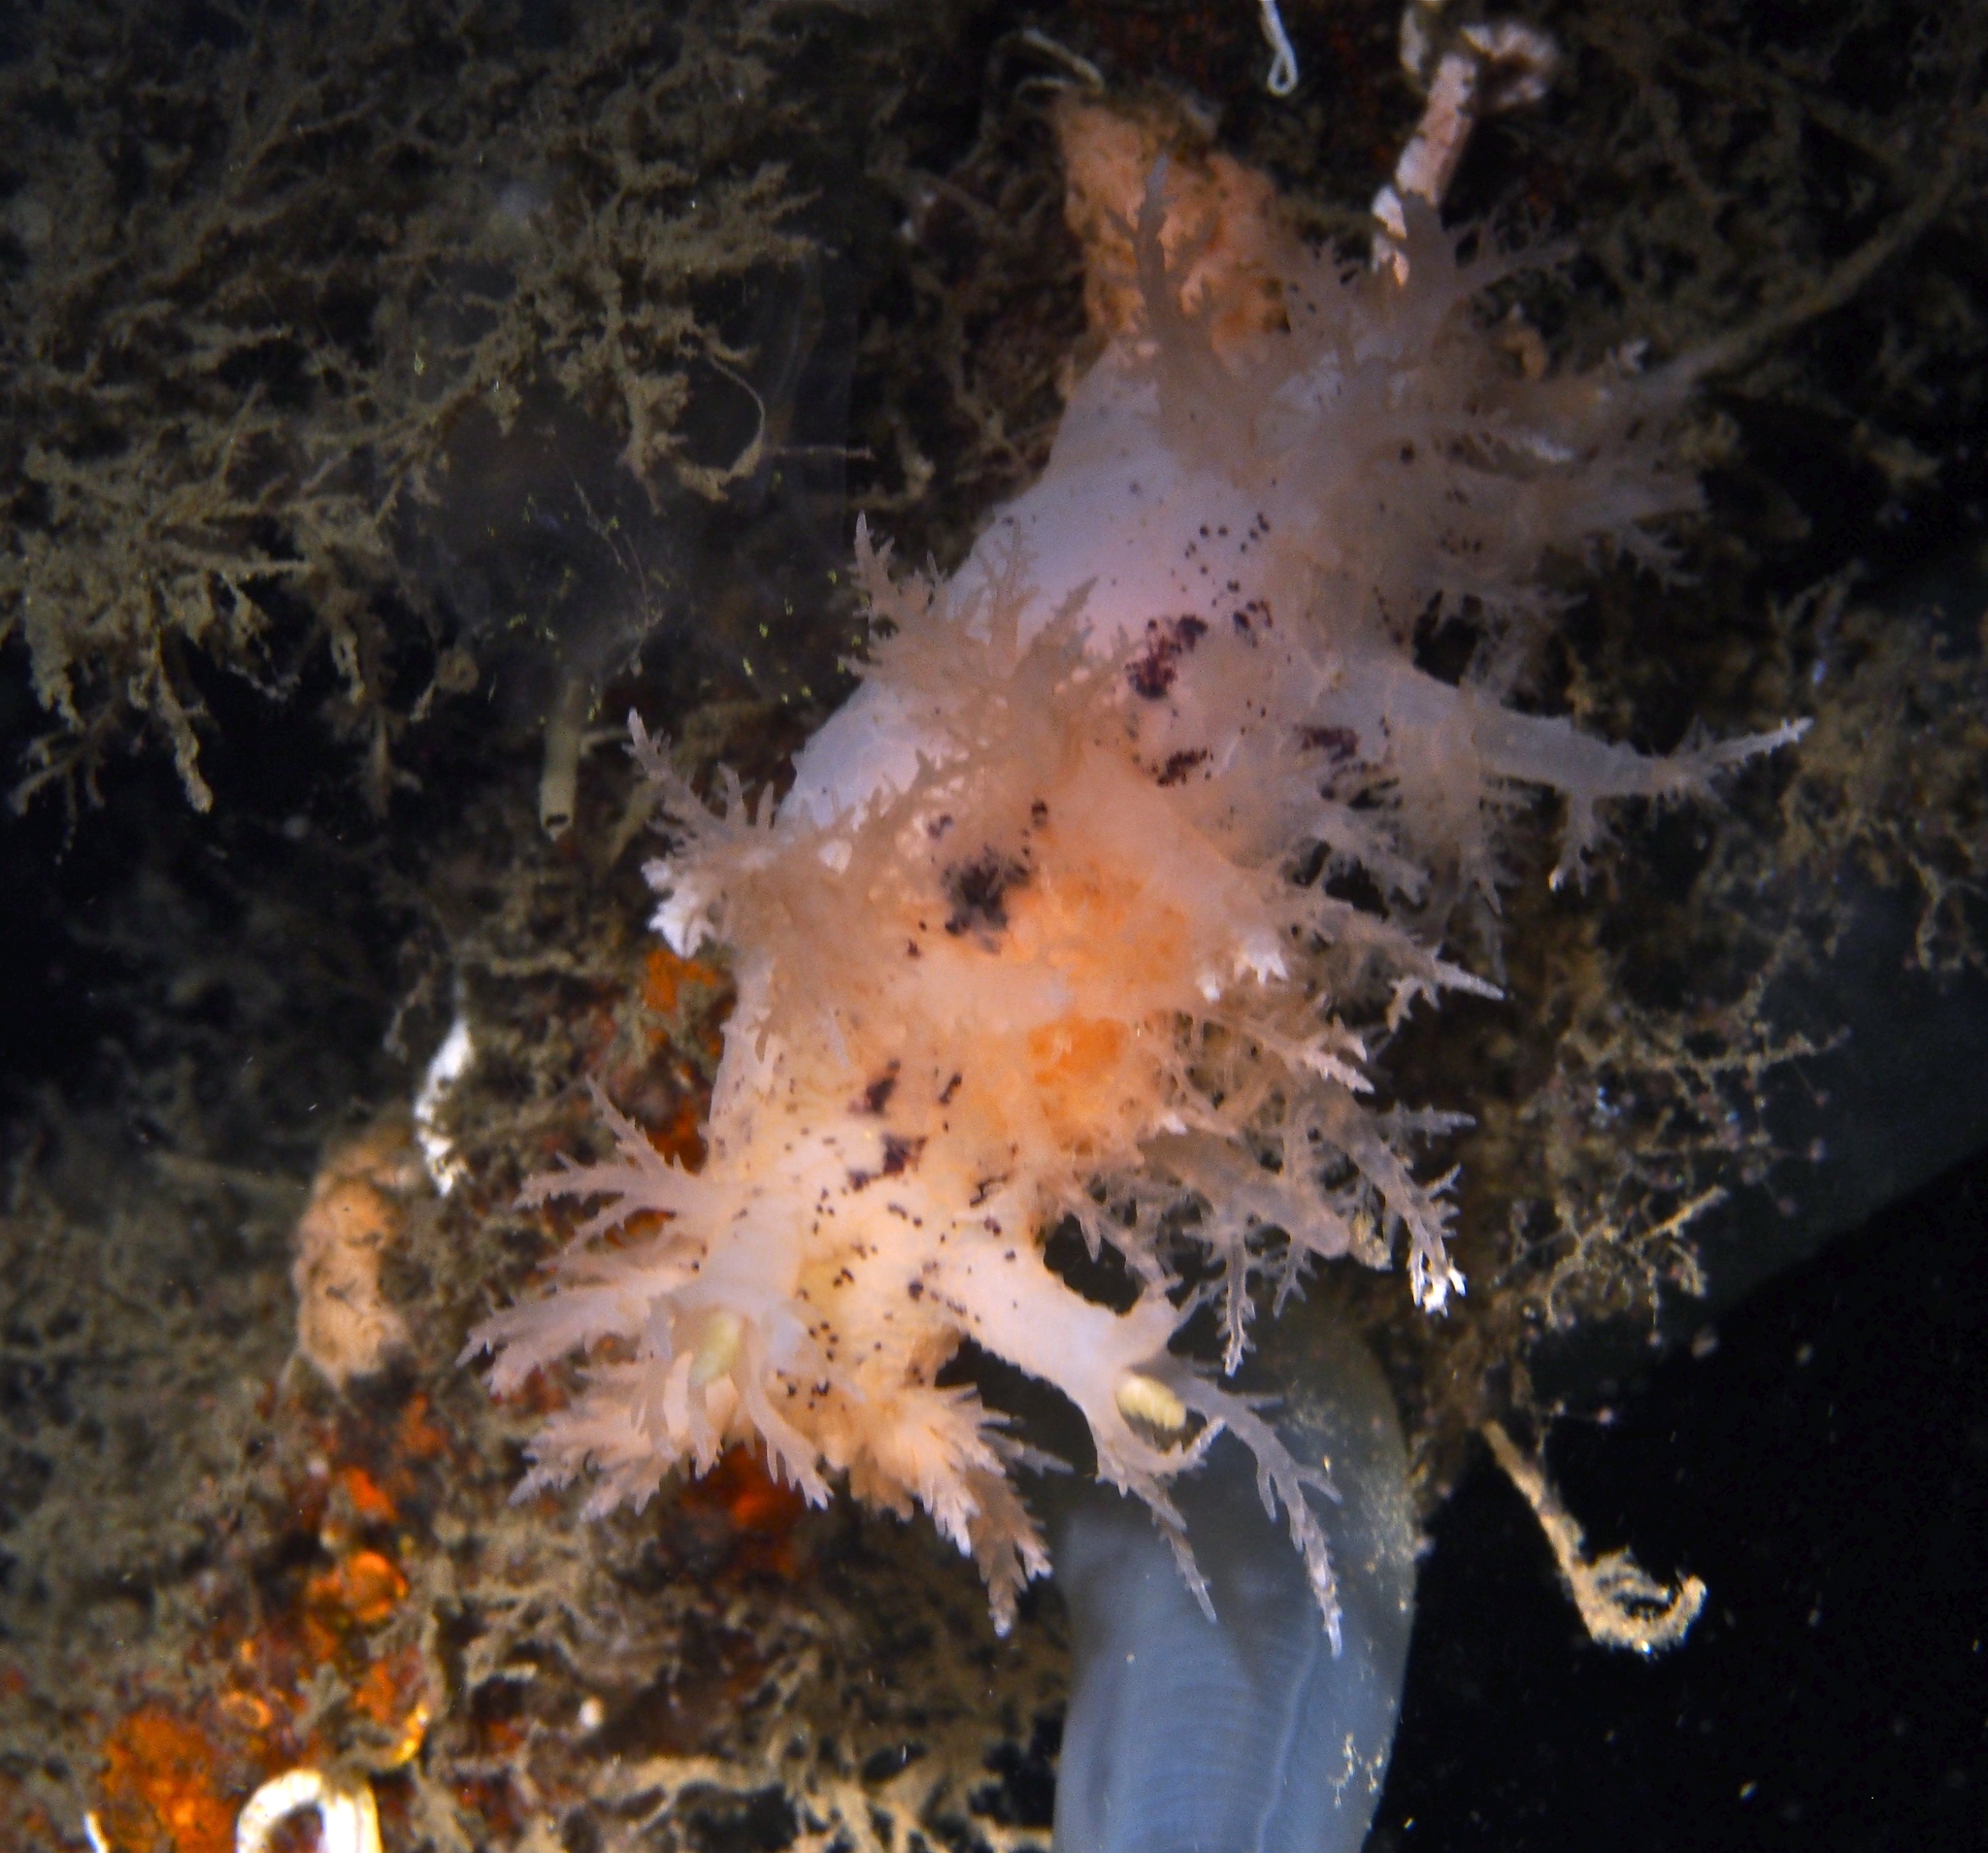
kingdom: Animalia
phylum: Mollusca
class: Gastropoda
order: Nudibranchia
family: Dendronotidae
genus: Dendronotus
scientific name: Dendronotus europaeus
